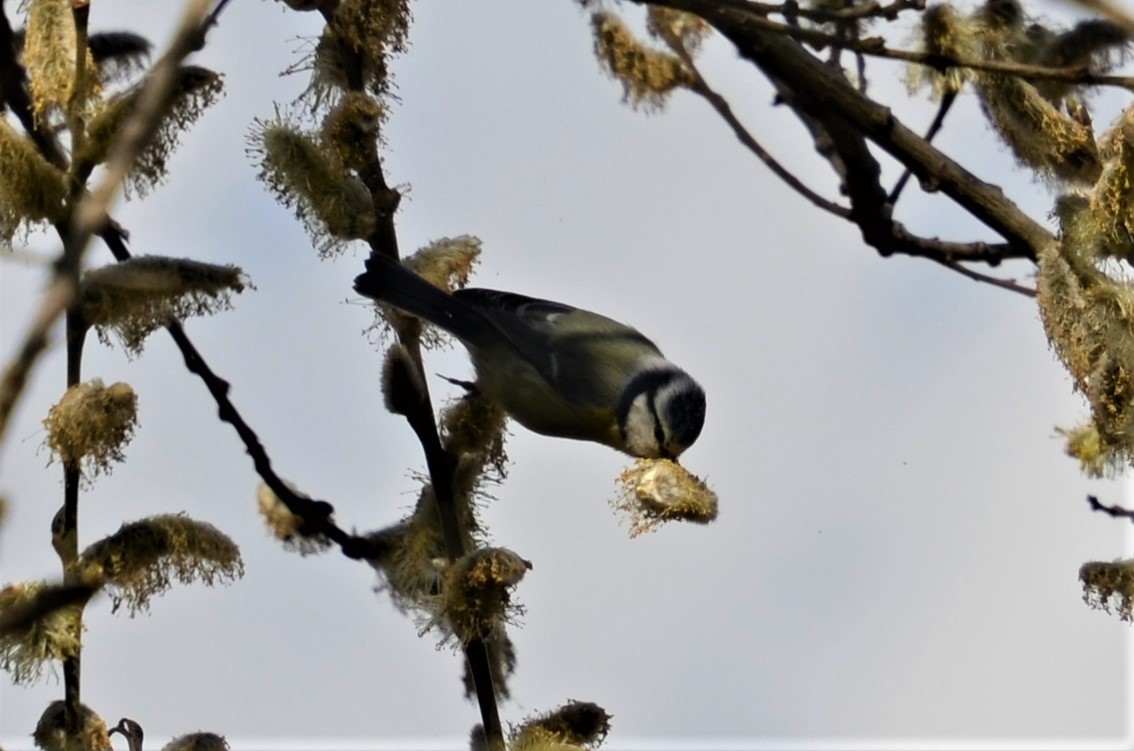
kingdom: Animalia
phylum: Chordata
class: Aves
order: Passeriformes
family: Paridae
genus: Cyanistes
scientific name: Cyanistes caeruleus
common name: Eurasian blue tit
